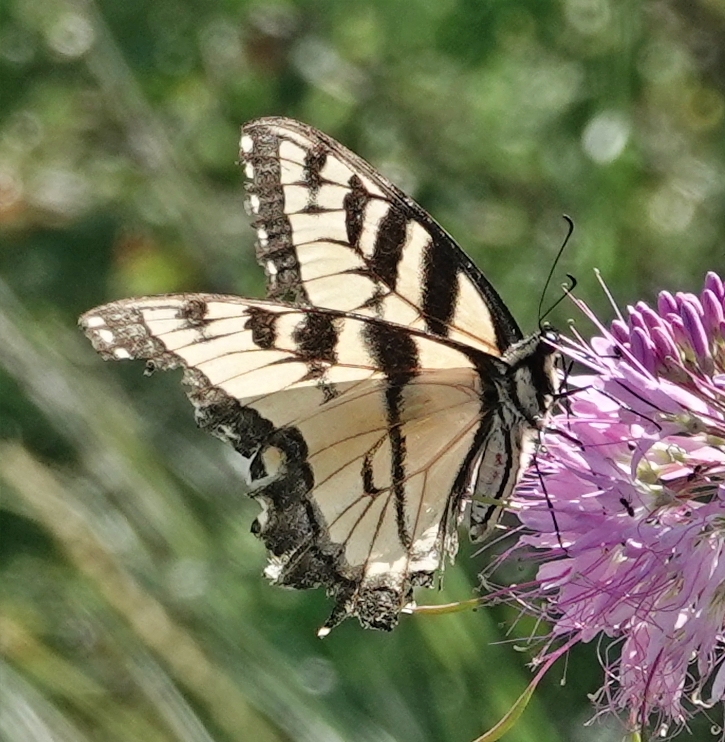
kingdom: Animalia
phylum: Arthropoda
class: Insecta
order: Lepidoptera
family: Papilionidae
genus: Papilio
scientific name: Papilio glaucus
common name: Tiger swallowtail
